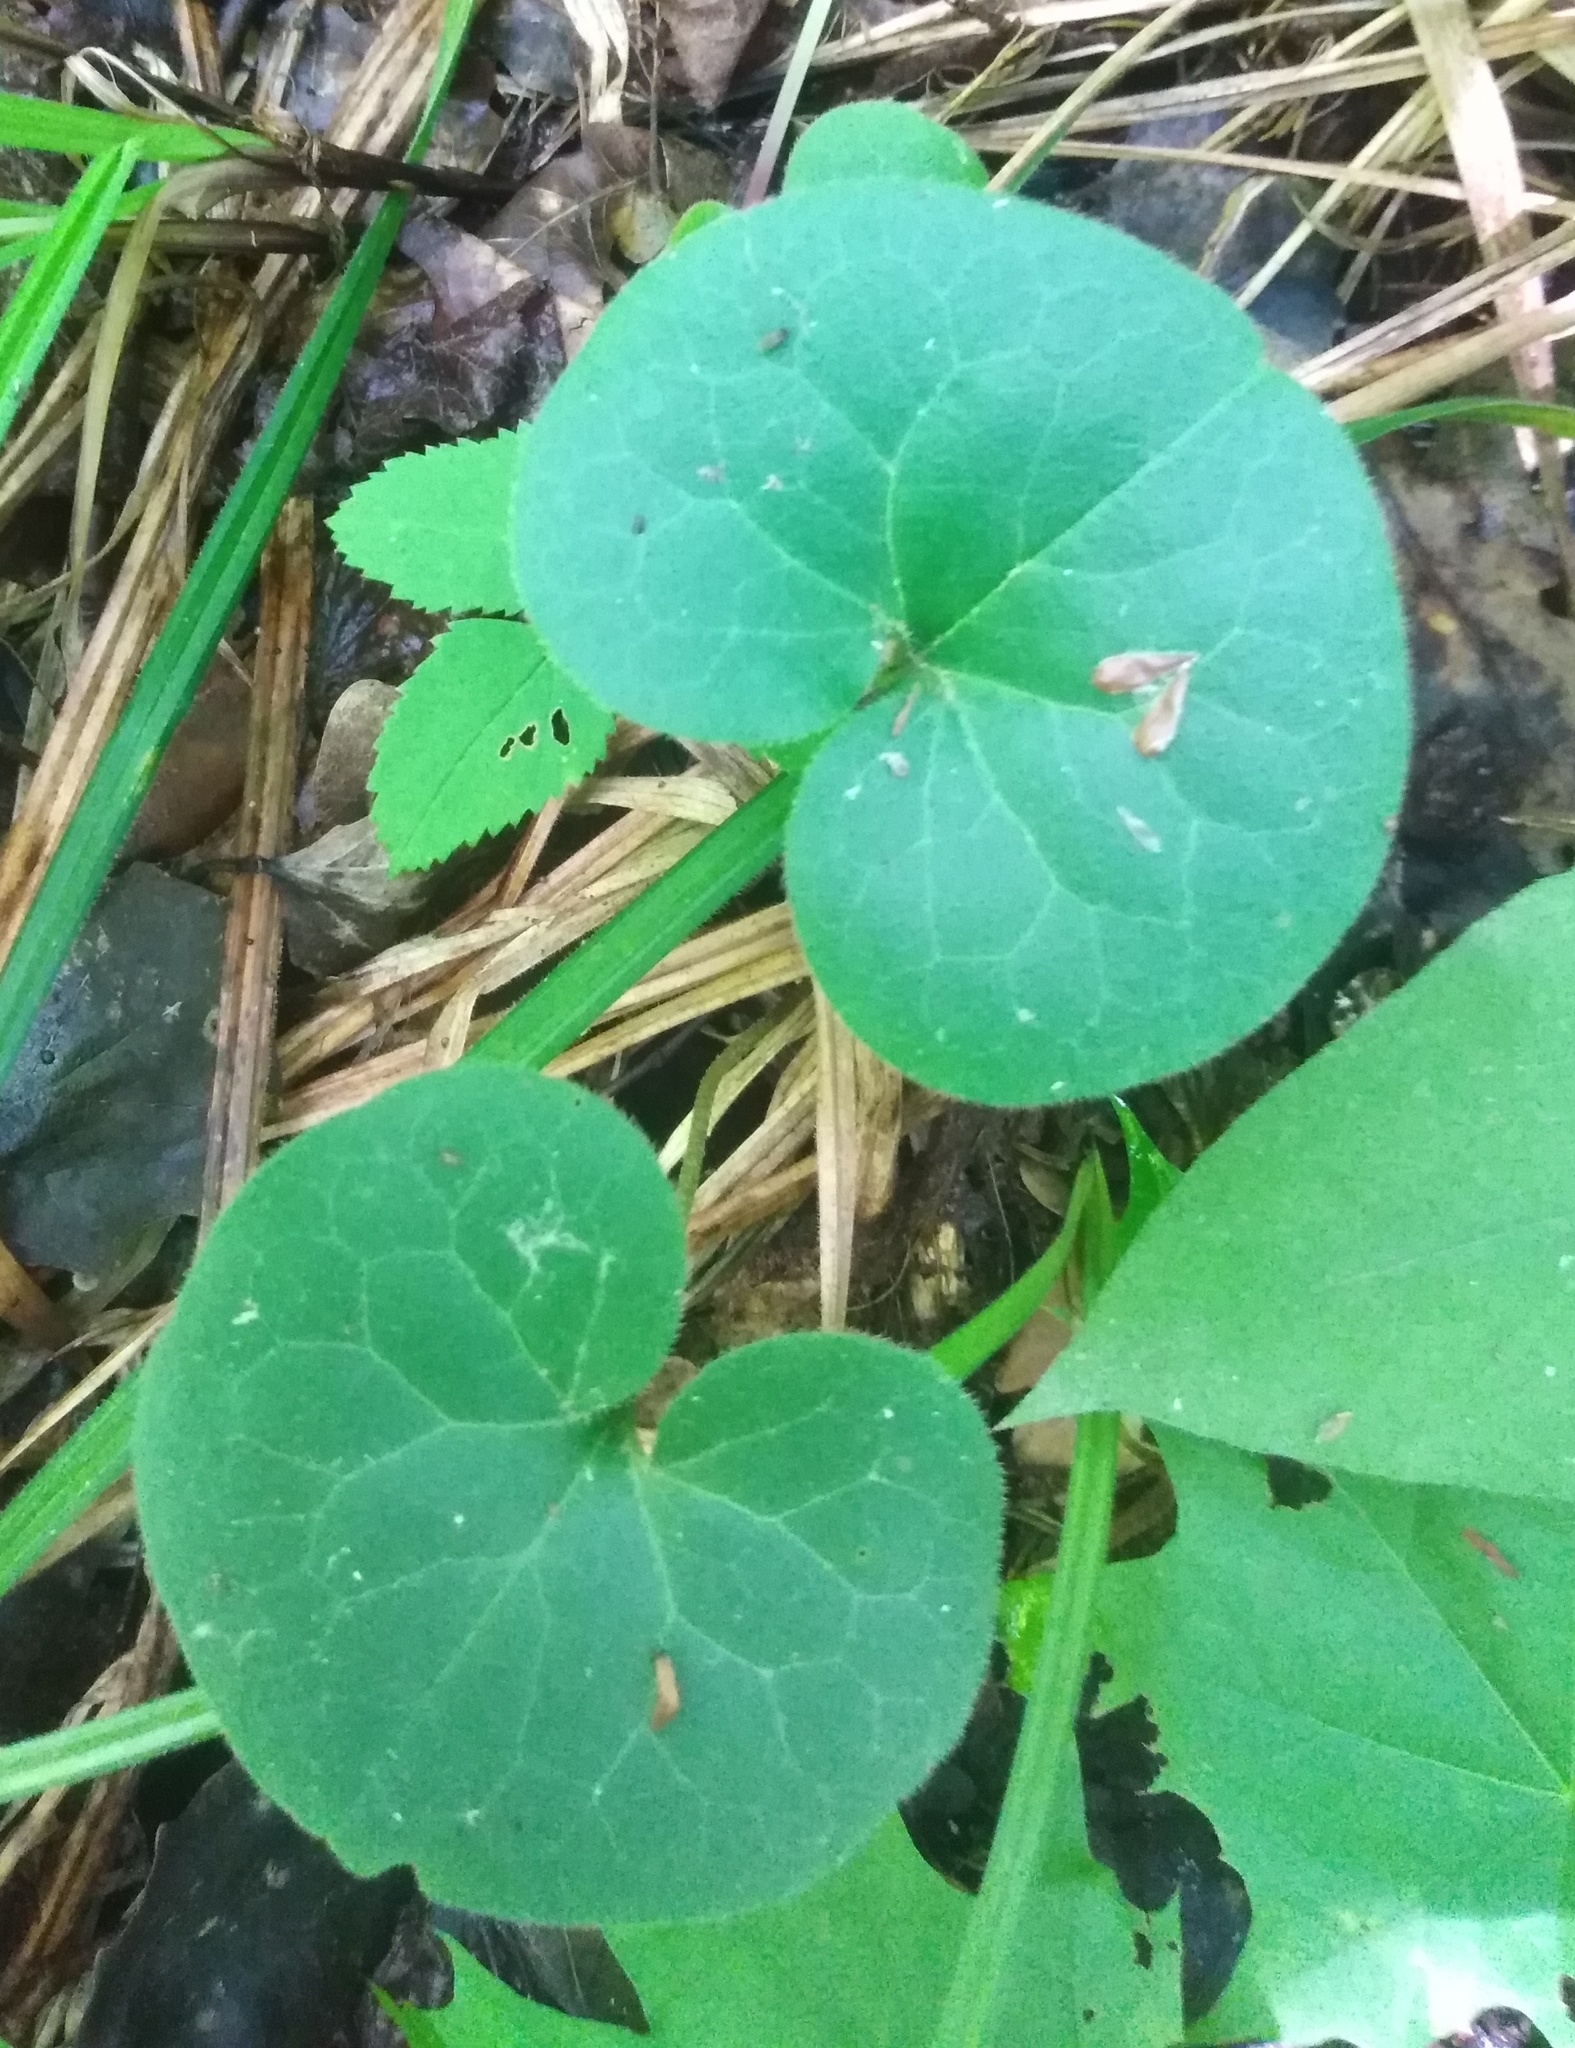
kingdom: Plantae
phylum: Tracheophyta
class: Magnoliopsida
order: Piperales
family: Aristolochiaceae
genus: Asarum
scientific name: Asarum europaeum
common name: Asarabacca
